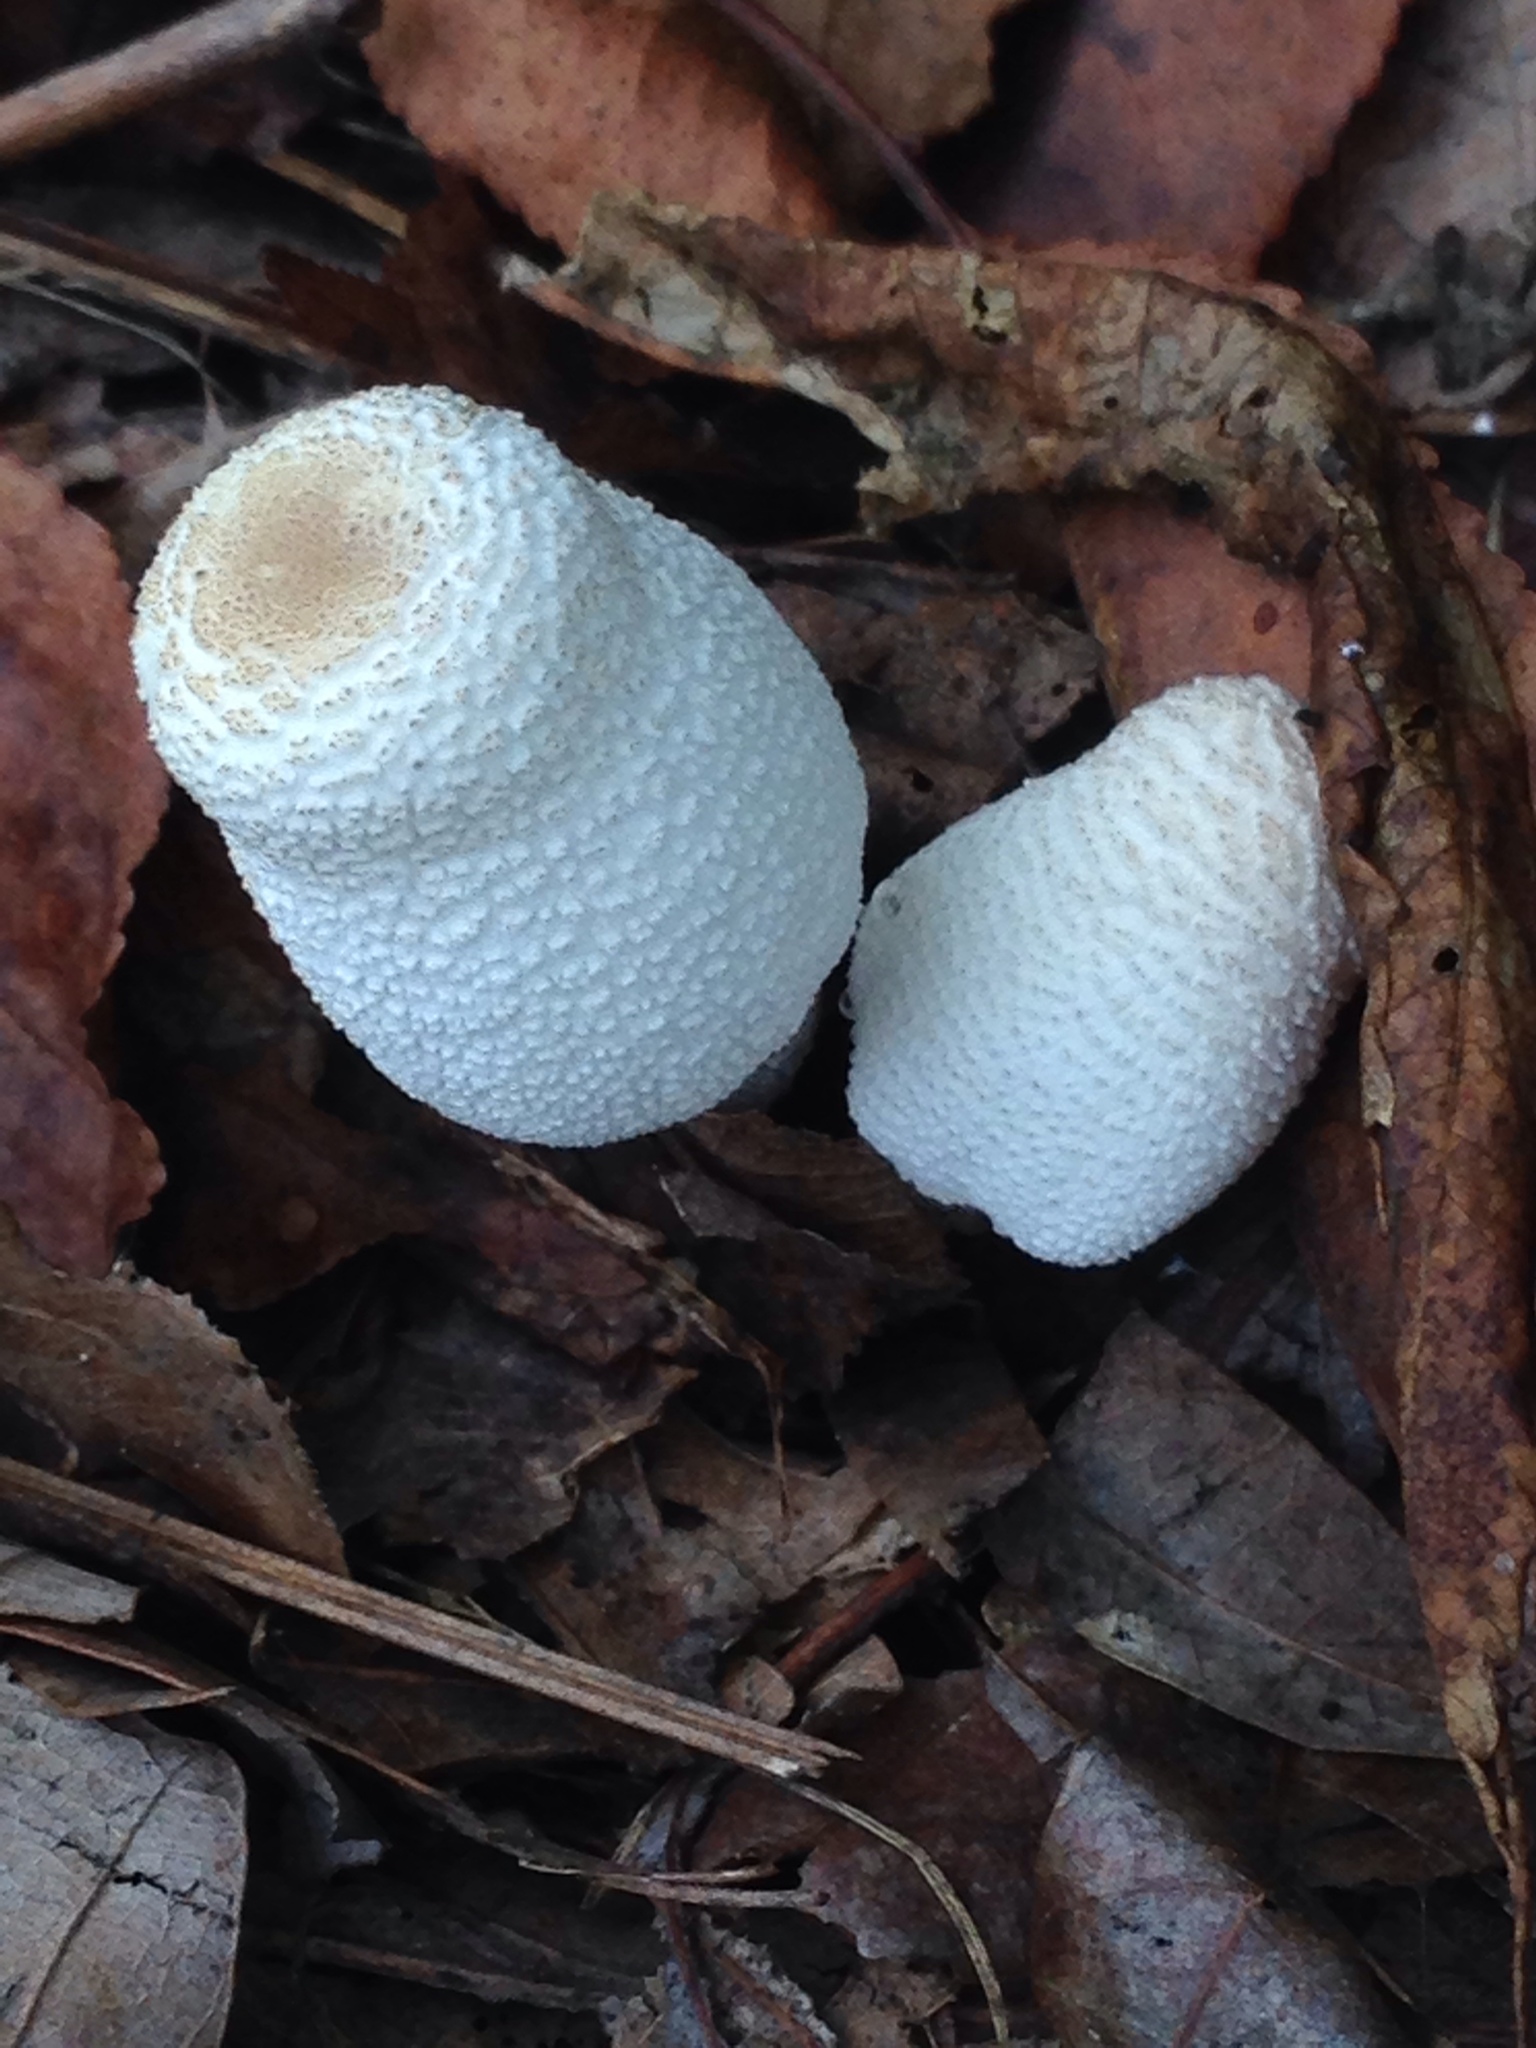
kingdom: Fungi
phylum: Basidiomycota
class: Agaricomycetes
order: Agaricales
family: Agaricaceae
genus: Leucocoprinus
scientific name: Leucocoprinus cepistipes
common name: Onion-stalk parasol
